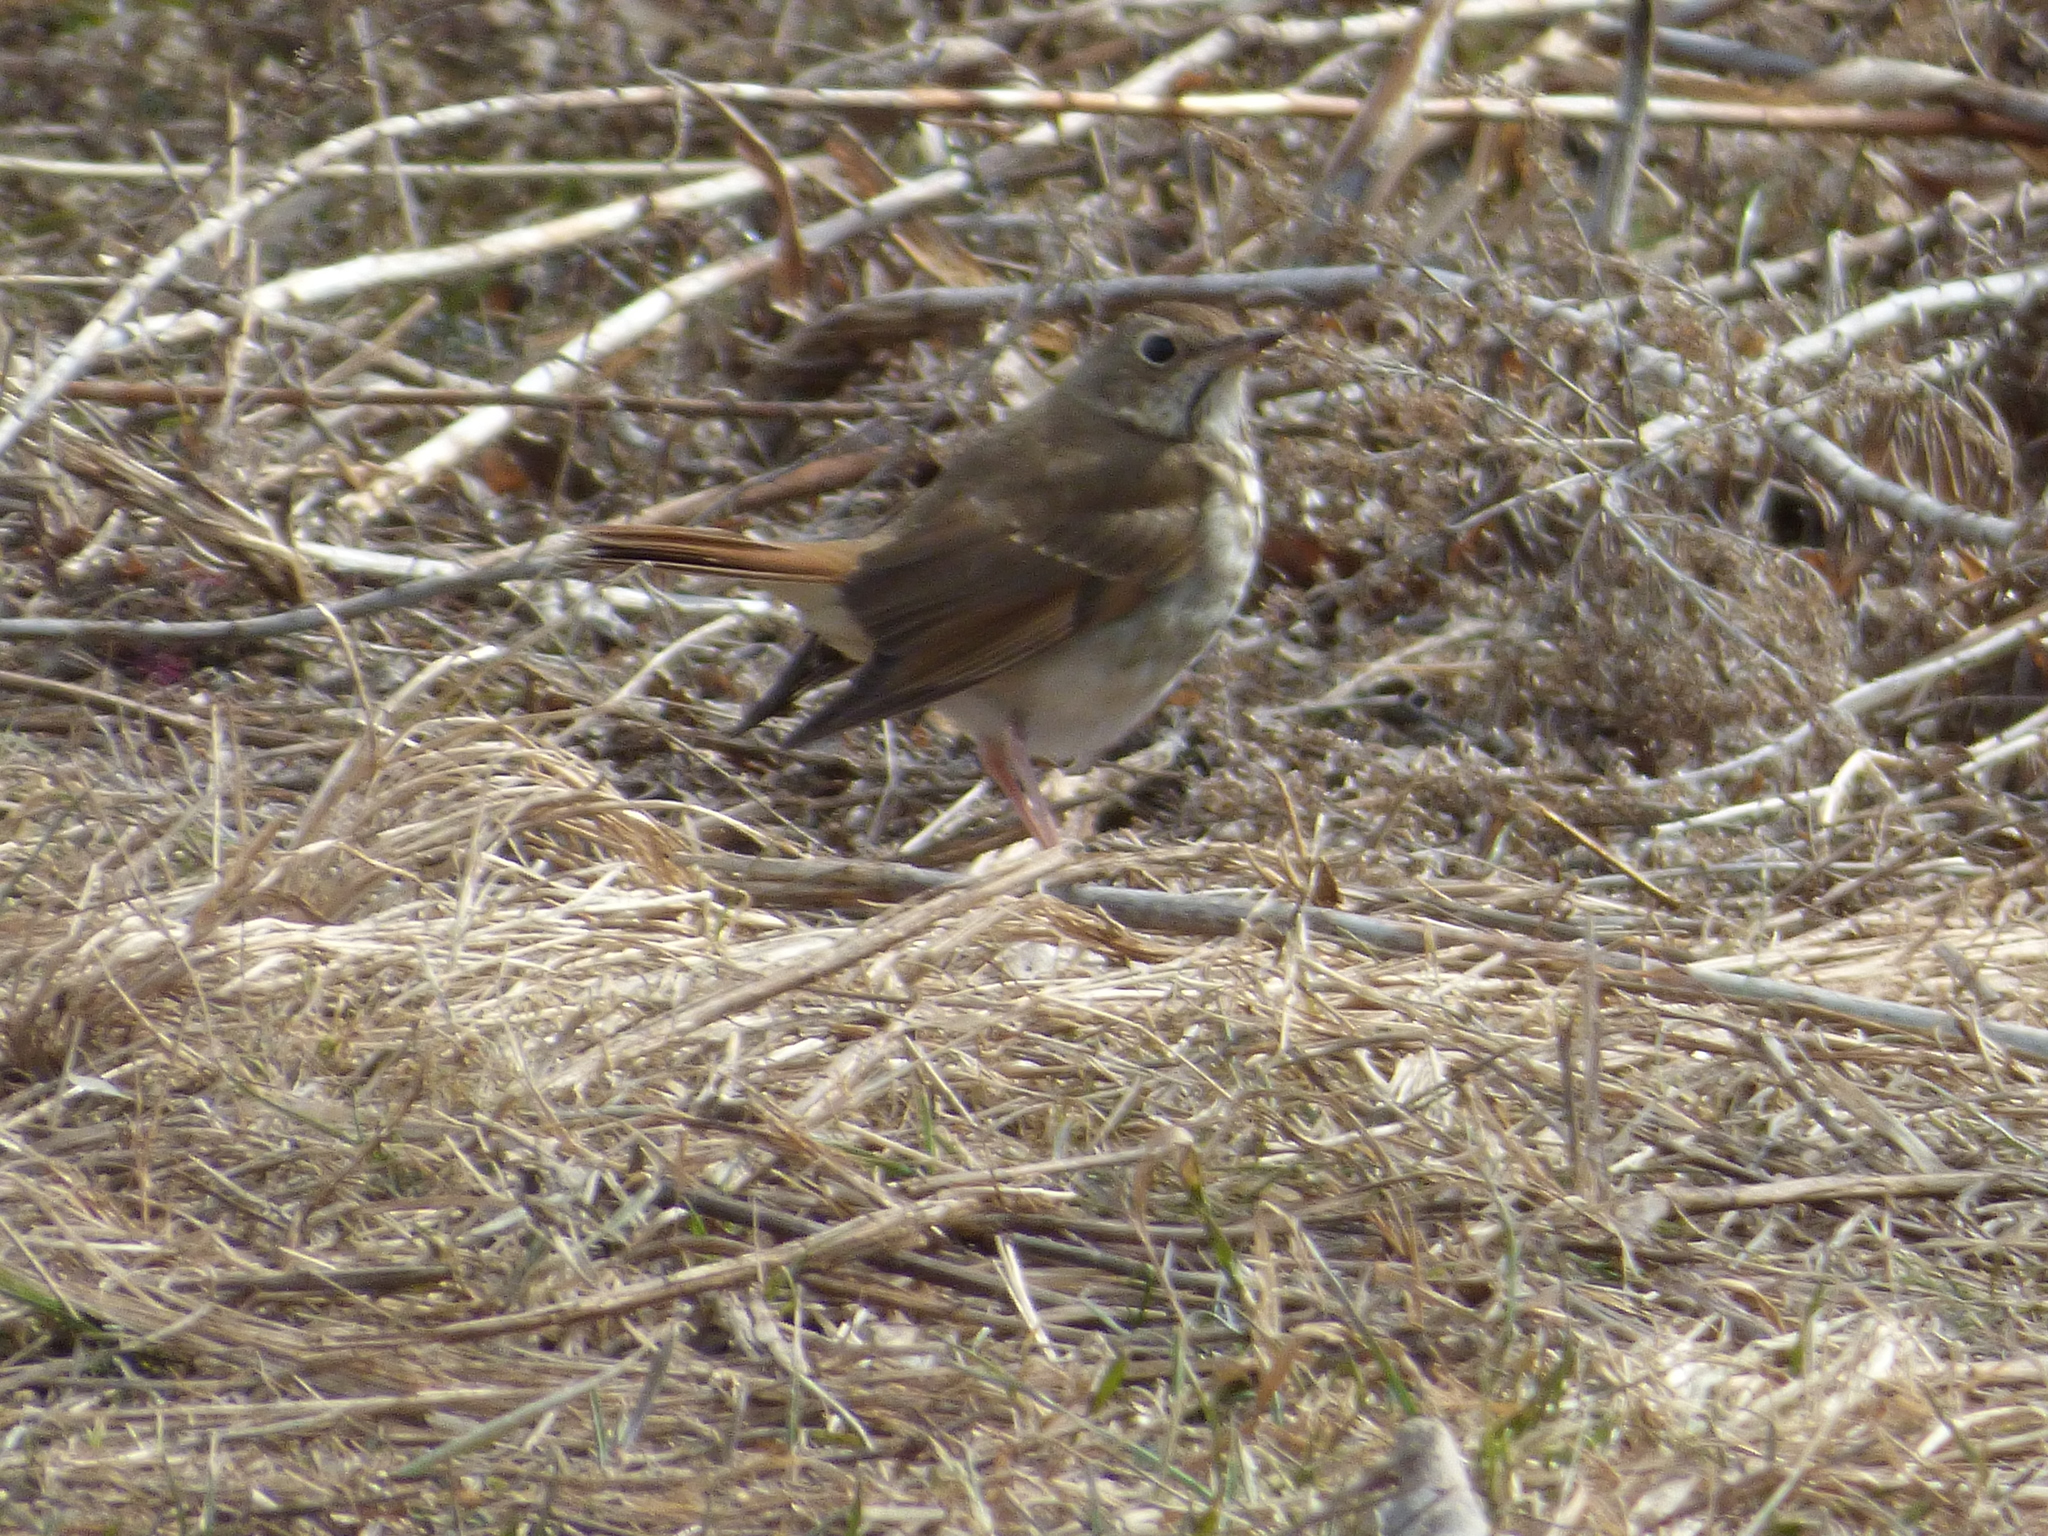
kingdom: Animalia
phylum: Chordata
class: Aves
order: Passeriformes
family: Turdidae
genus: Catharus
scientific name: Catharus guttatus
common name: Hermit thrush
